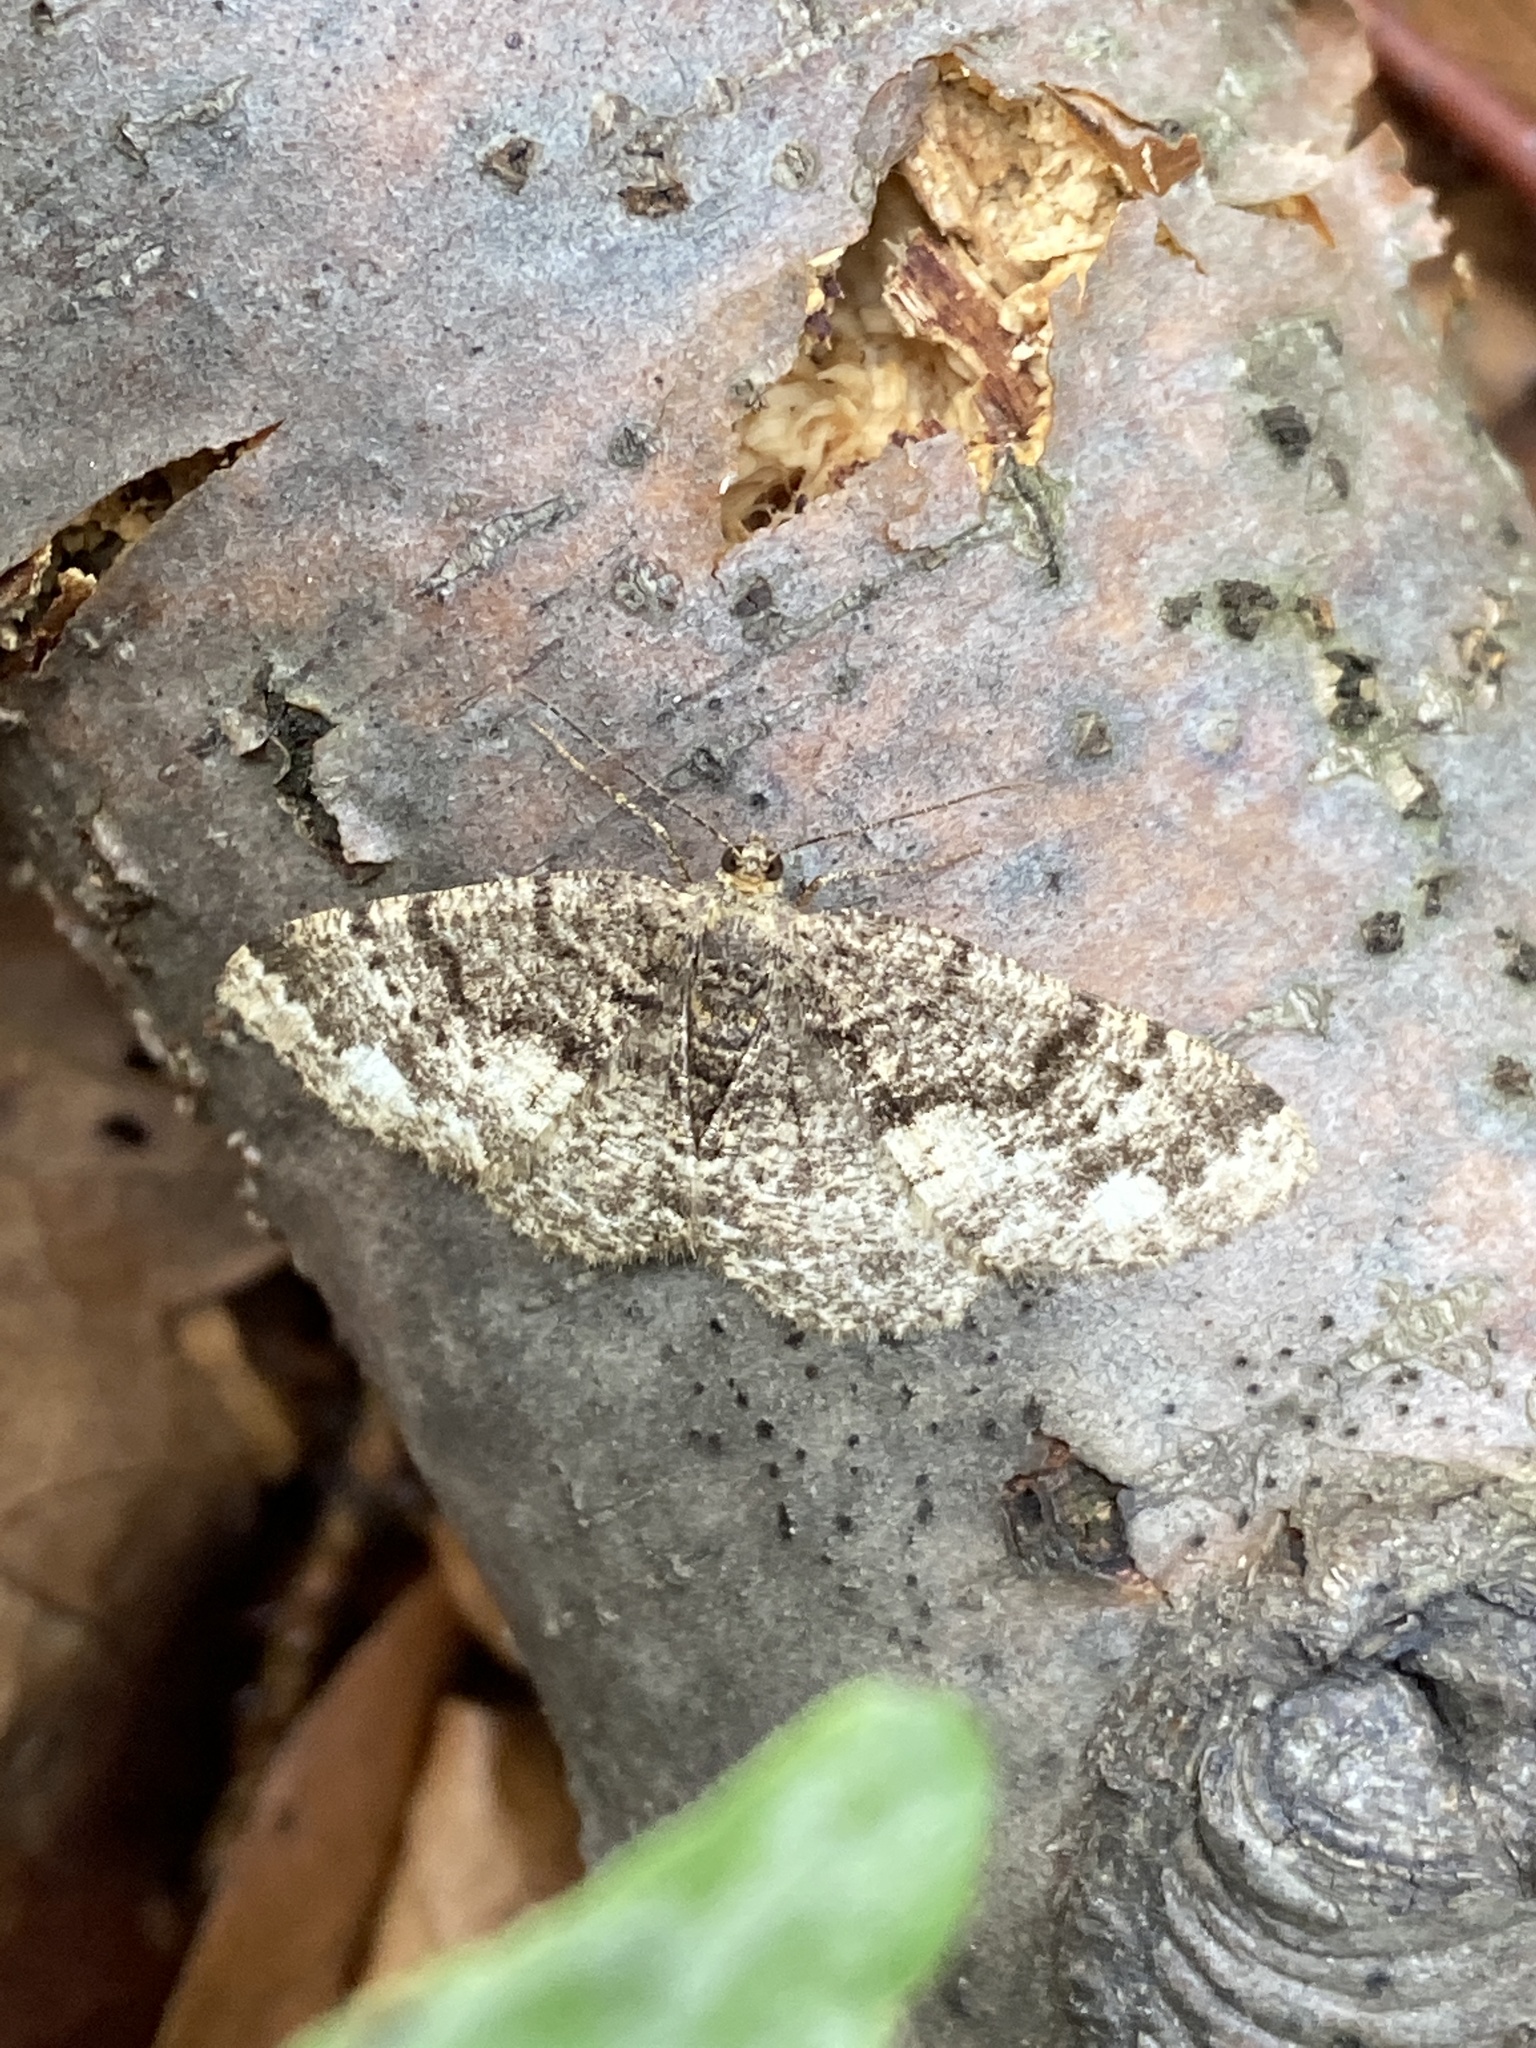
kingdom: Animalia
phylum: Arthropoda
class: Insecta
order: Lepidoptera
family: Geometridae
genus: Parectropis
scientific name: Parectropis similaria
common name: Brindled white-spot
